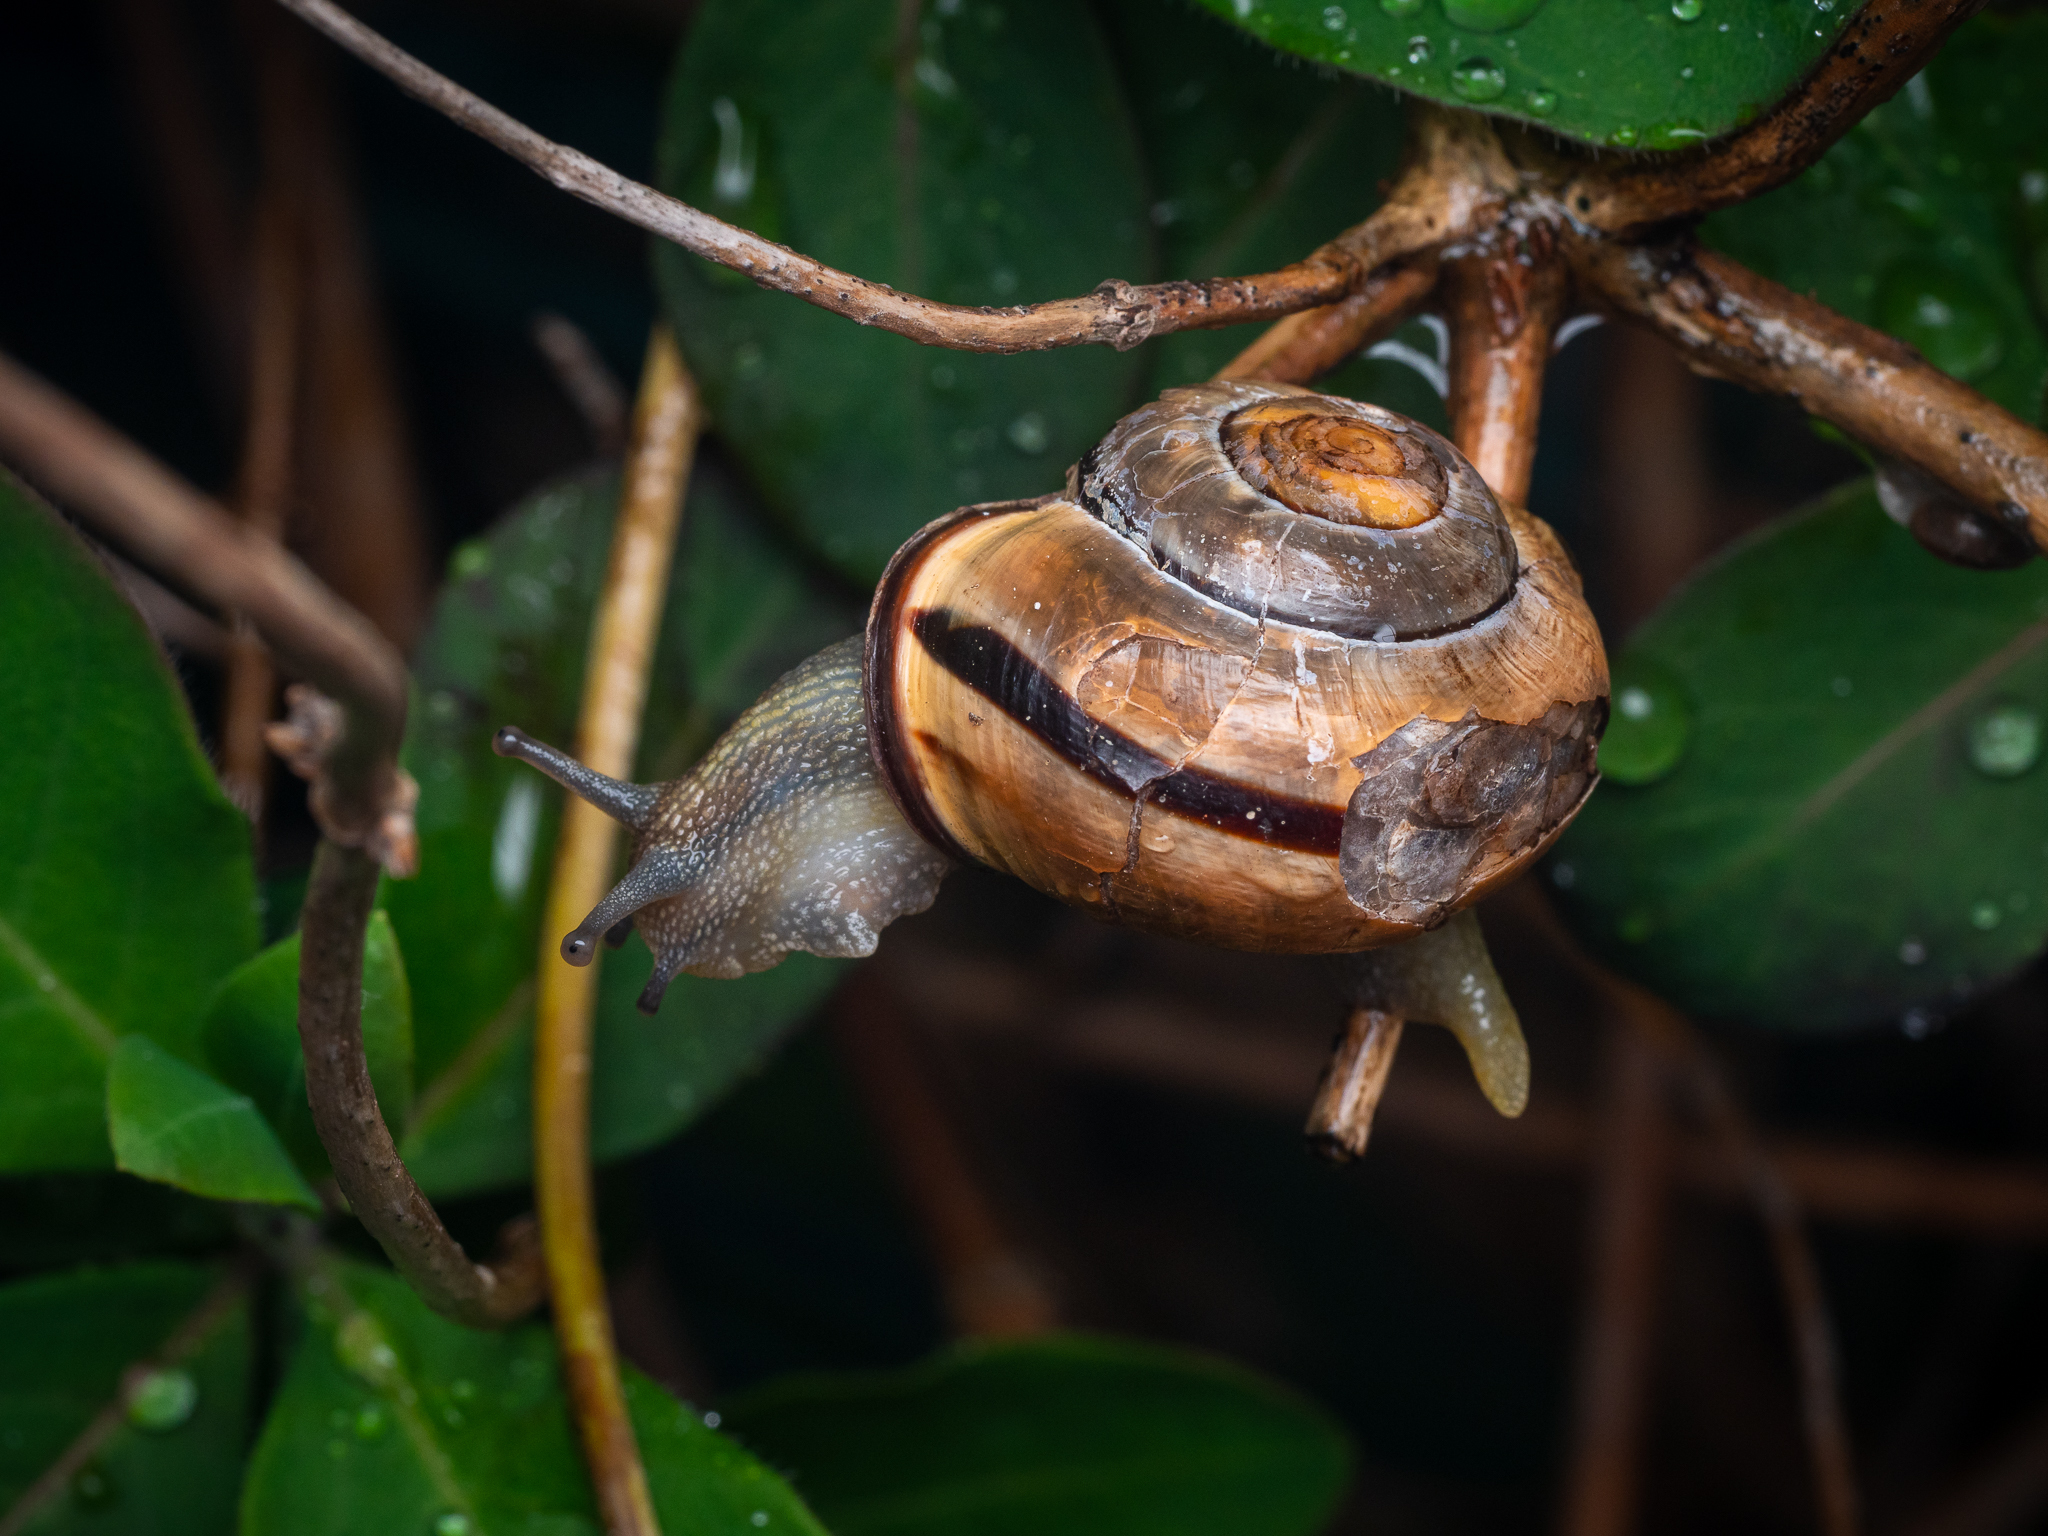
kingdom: Animalia
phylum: Mollusca
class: Gastropoda
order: Stylommatophora
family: Helicidae
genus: Cepaea
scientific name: Cepaea nemoralis
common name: Grovesnail
